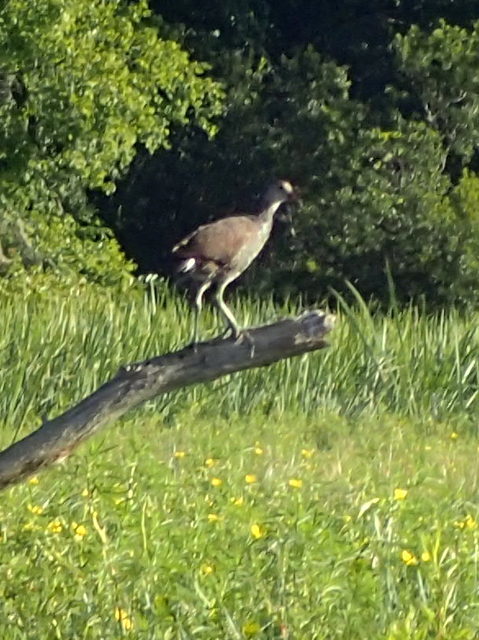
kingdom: Animalia
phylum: Chordata
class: Aves
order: Gruiformes
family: Rallidae
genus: Gallinula
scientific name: Gallinula chloropus
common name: Common moorhen
